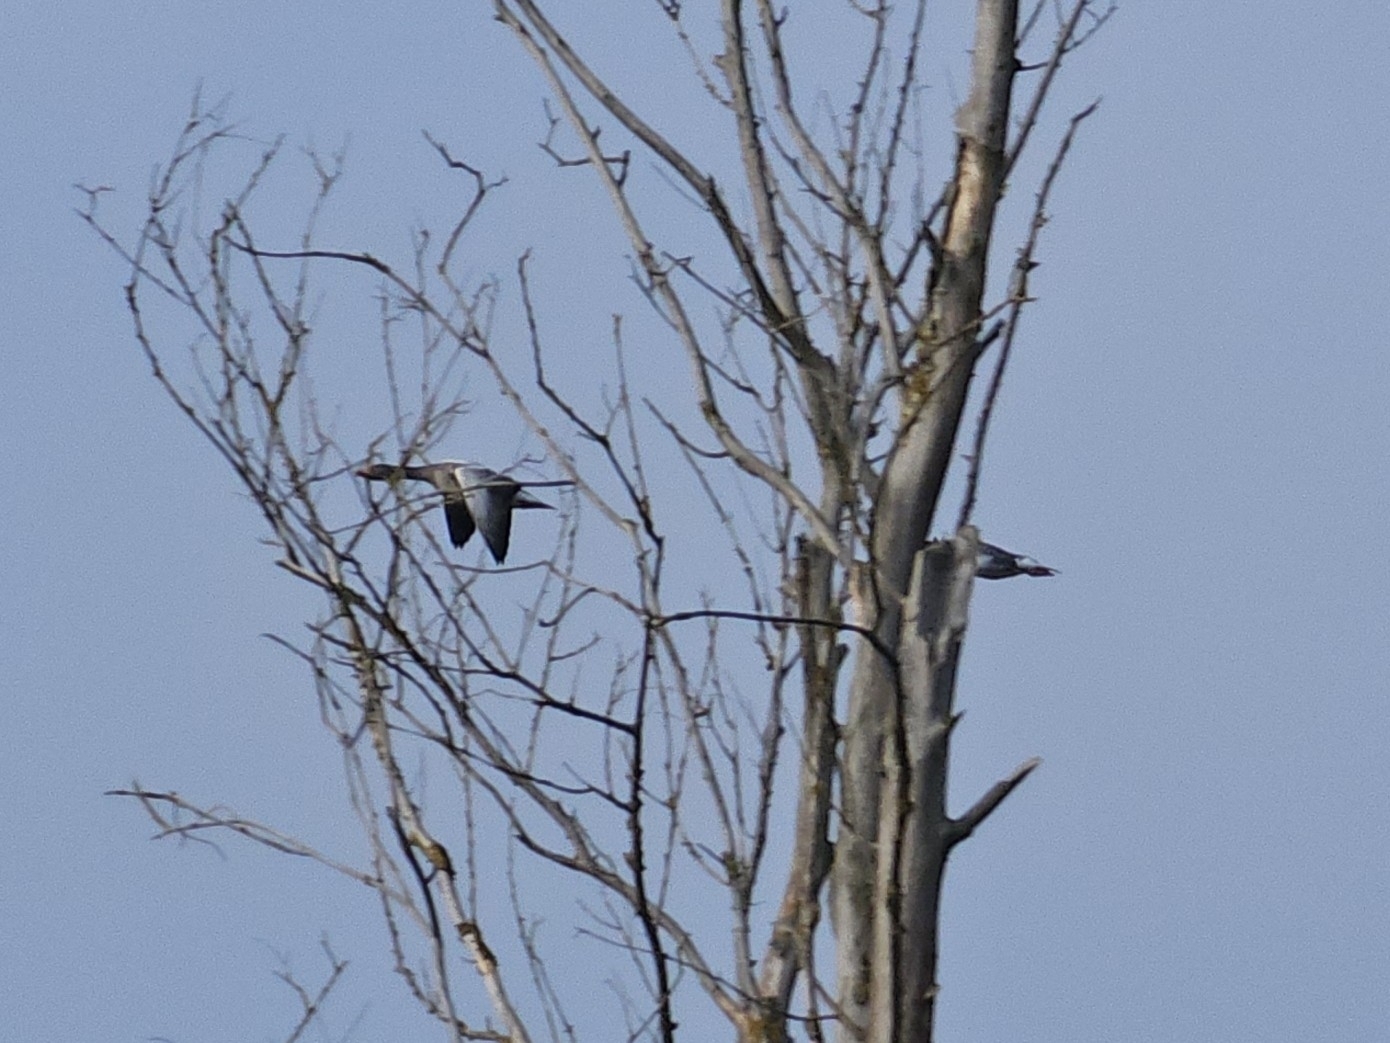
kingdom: Animalia
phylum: Chordata
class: Aves
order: Anseriformes
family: Anatidae
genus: Anser
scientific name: Anser anser
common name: Greylag goose
